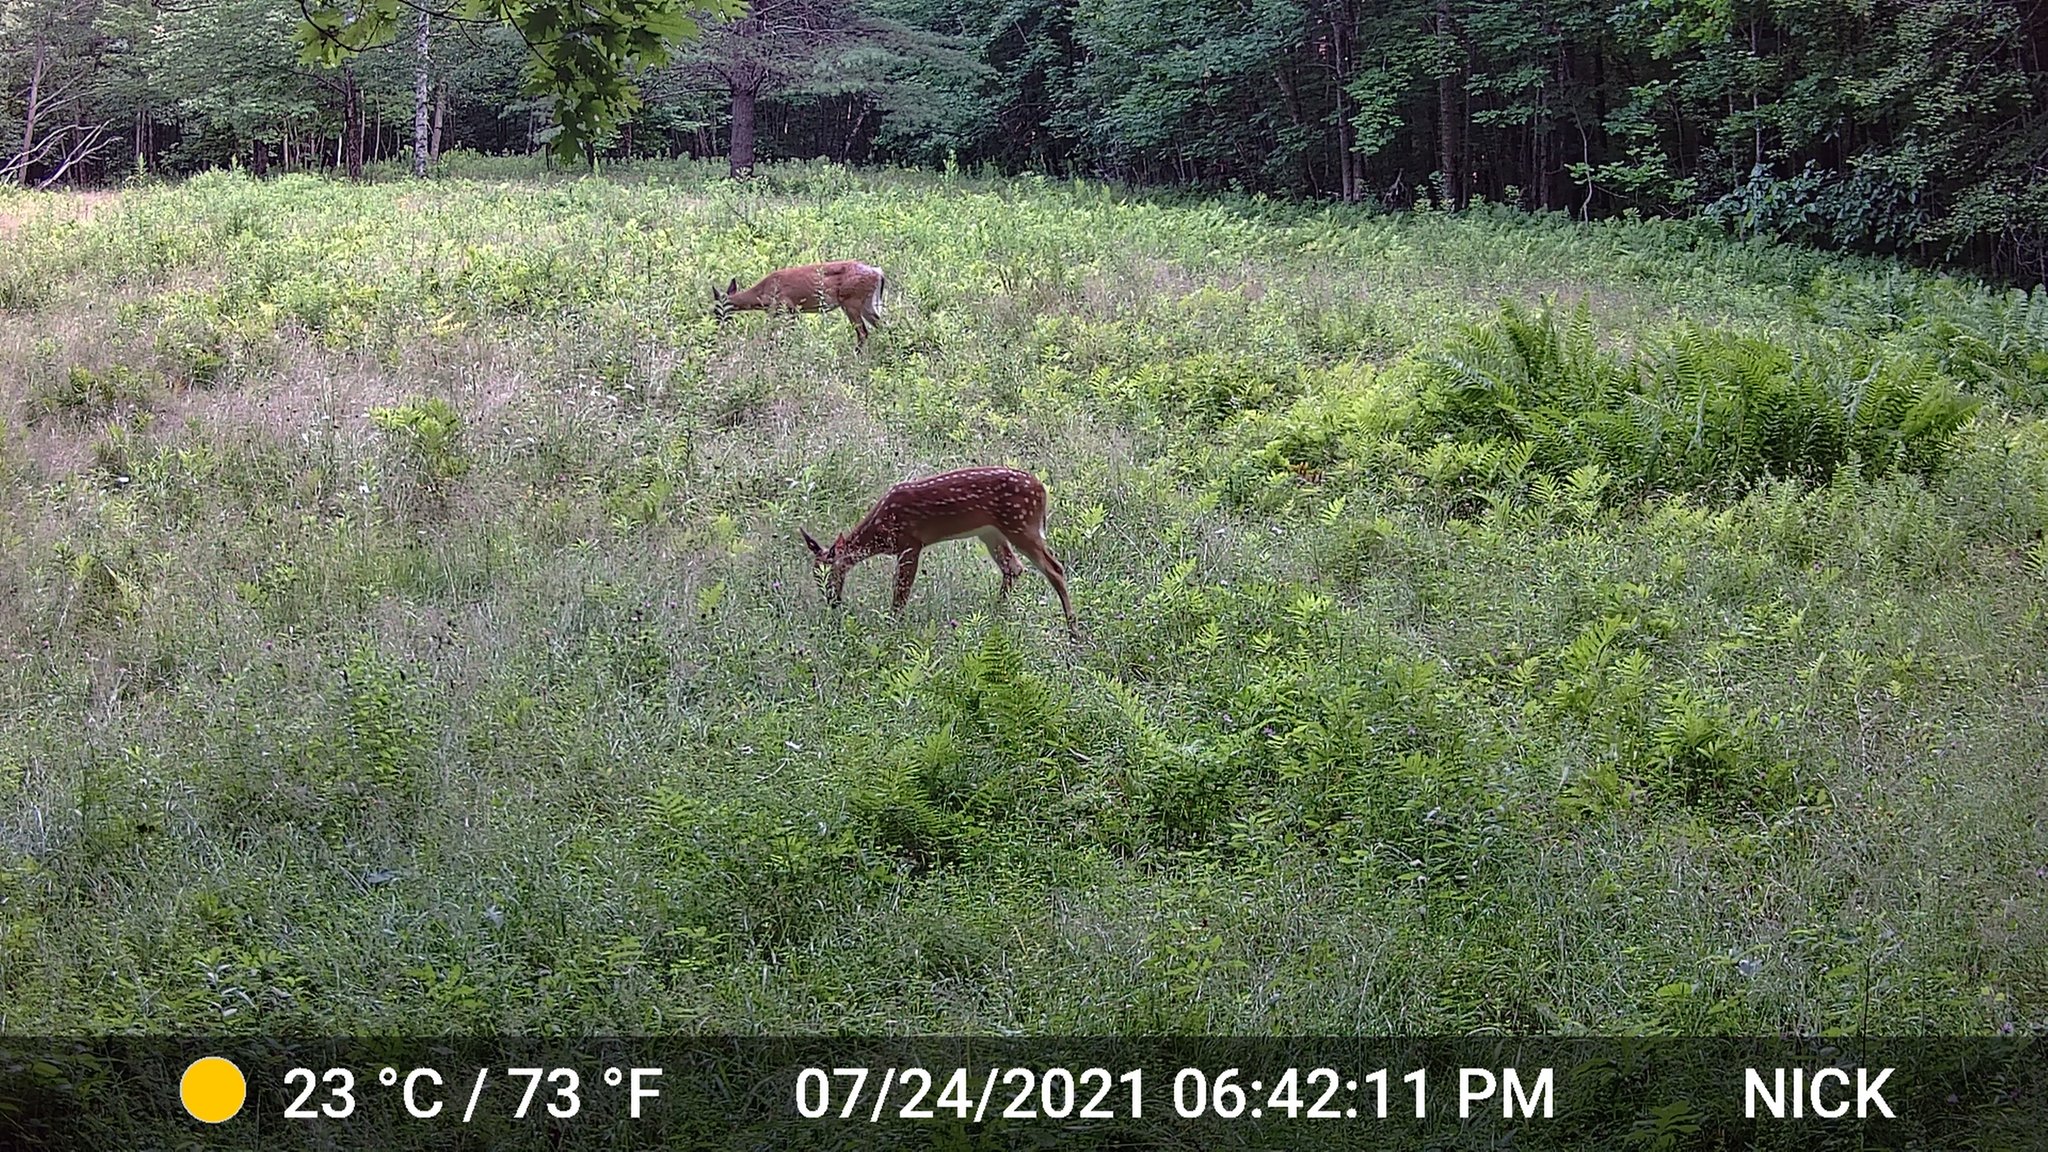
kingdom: Animalia
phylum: Chordata
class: Mammalia
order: Artiodactyla
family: Cervidae
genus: Odocoileus
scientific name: Odocoileus virginianus
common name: White-tailed deer
